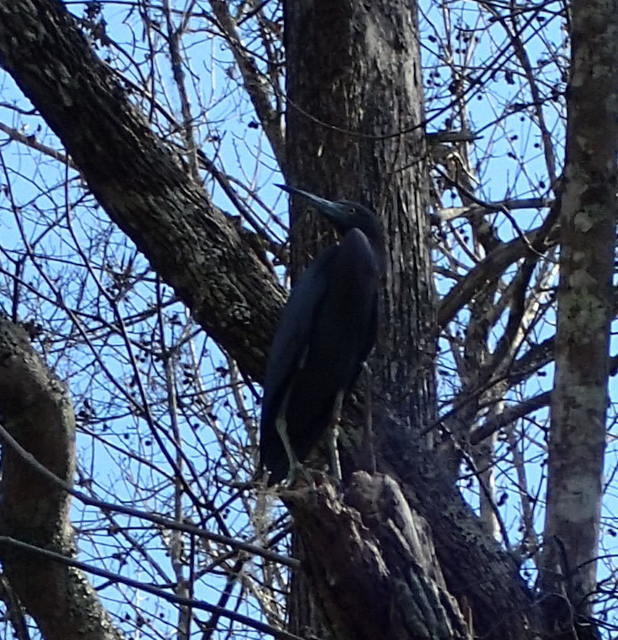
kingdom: Animalia
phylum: Chordata
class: Aves
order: Pelecaniformes
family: Ardeidae
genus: Egretta
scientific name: Egretta caerulea
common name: Little blue heron
